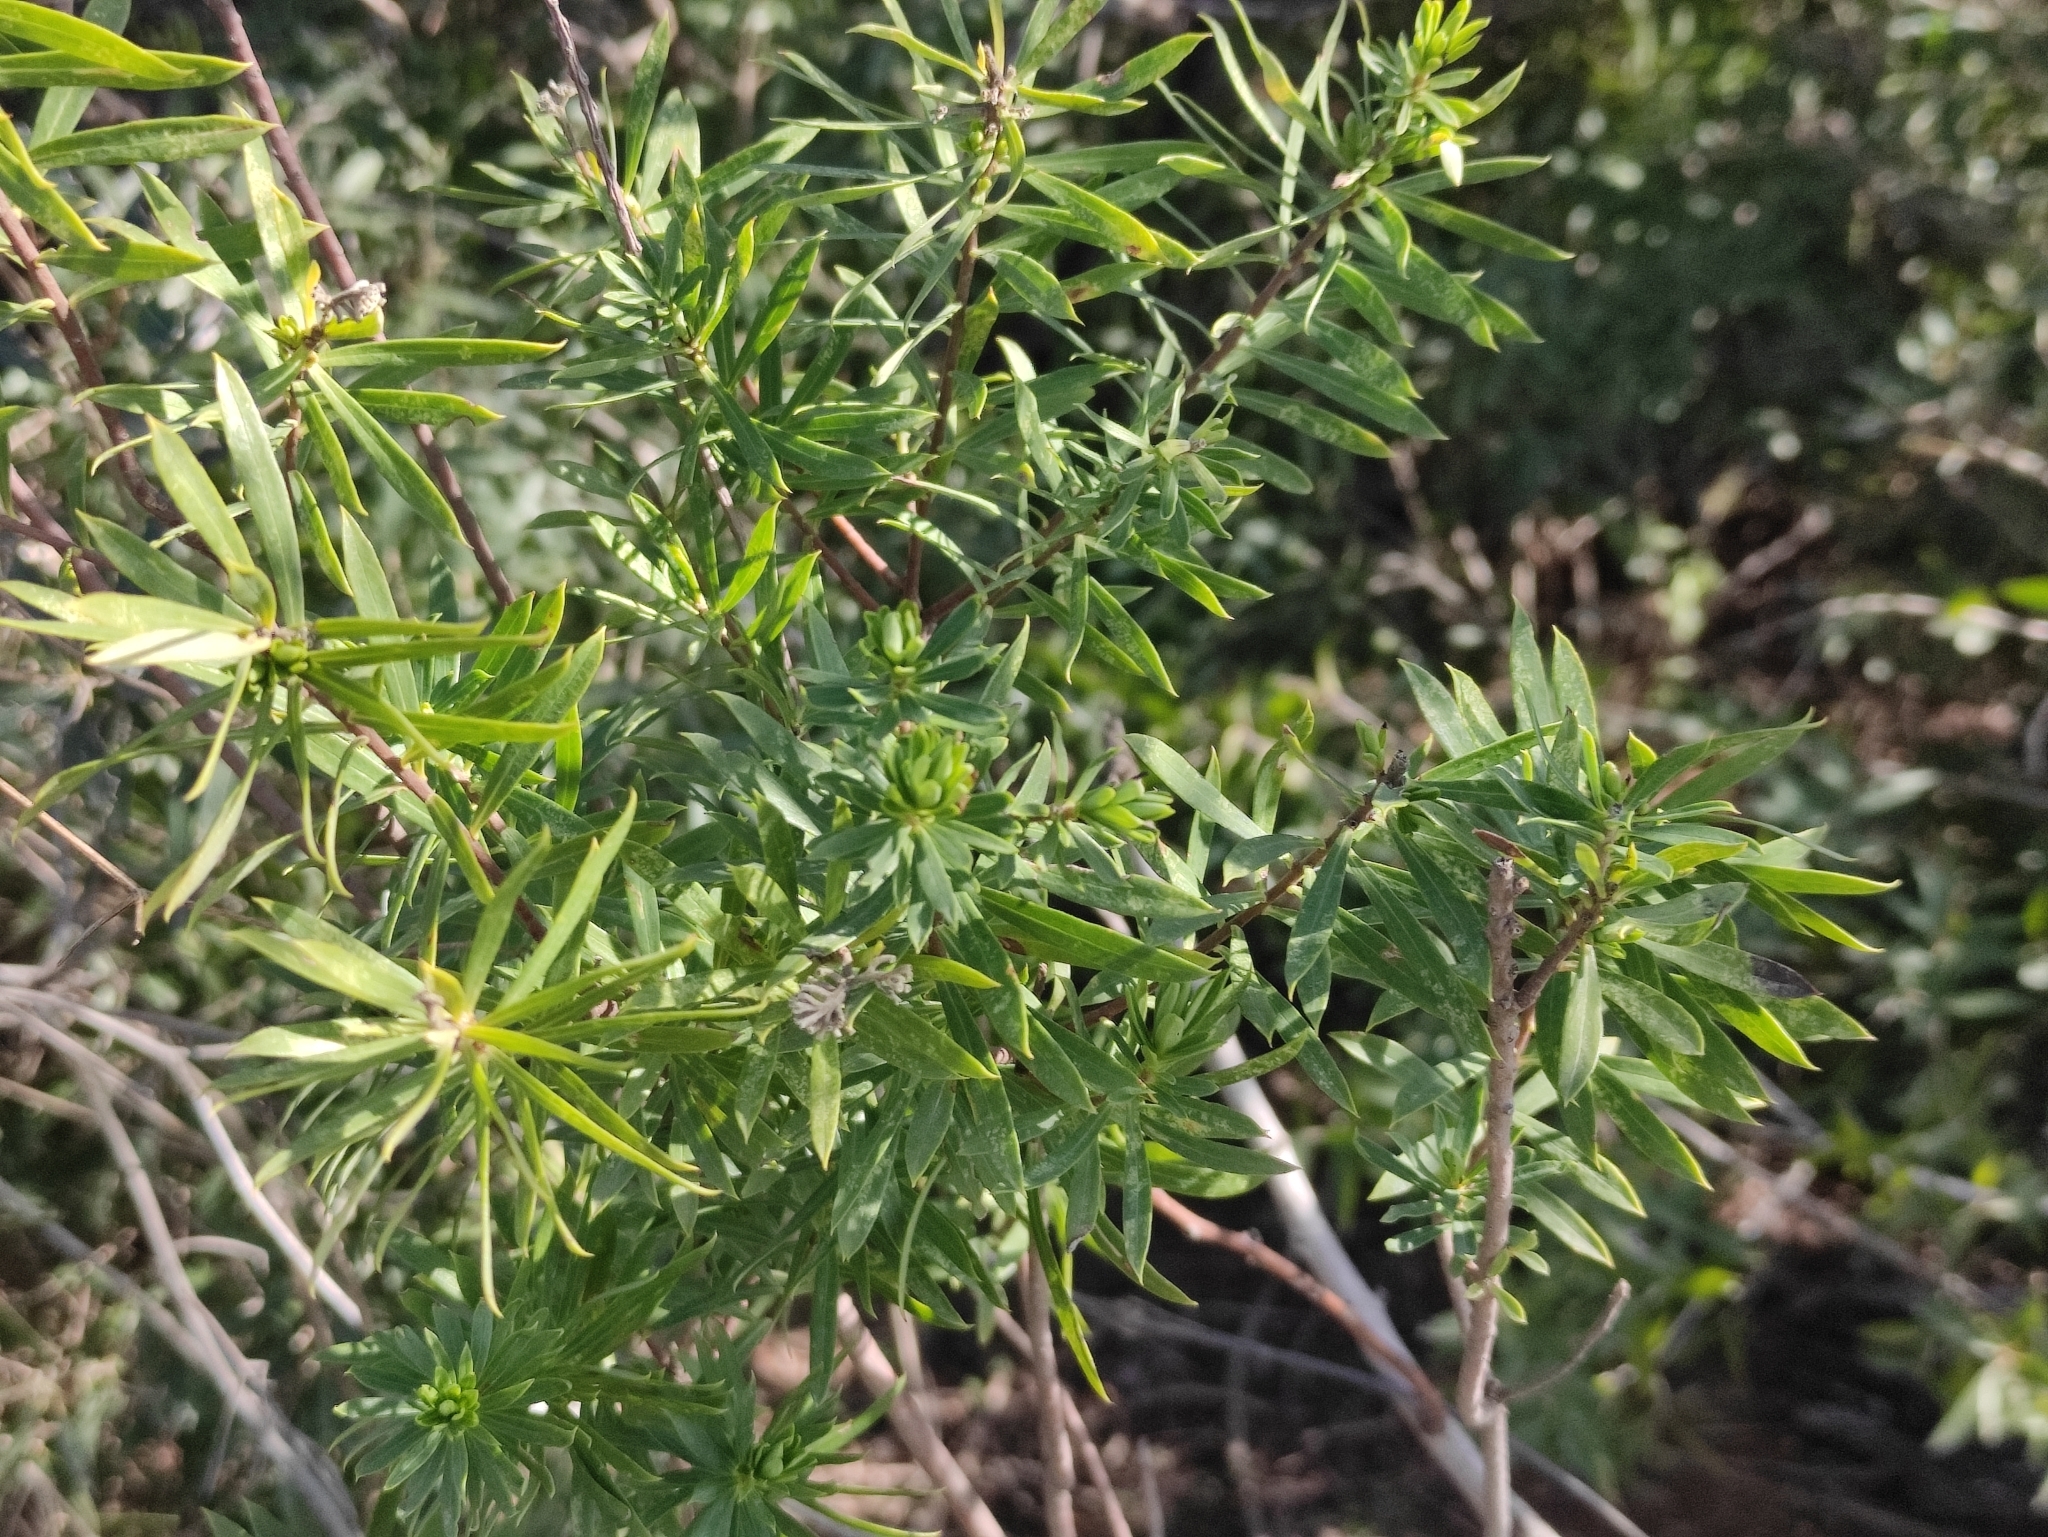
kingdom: Plantae
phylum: Tracheophyta
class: Magnoliopsida
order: Malvales
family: Thymelaeaceae
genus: Daphne
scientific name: Daphne gnidium
